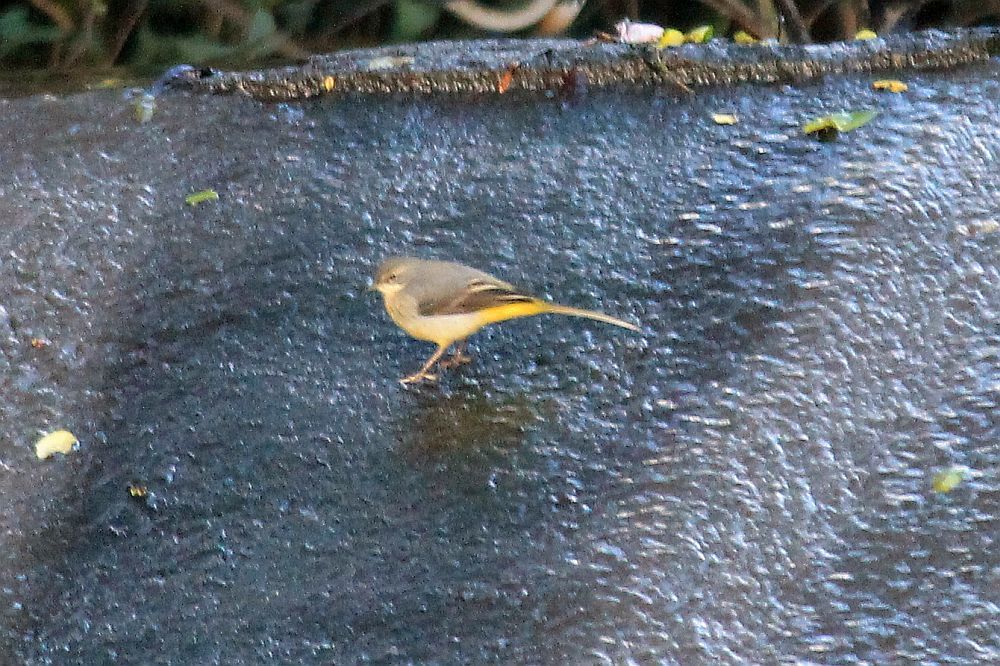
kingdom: Animalia
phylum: Chordata
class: Aves
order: Passeriformes
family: Motacillidae
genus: Motacilla
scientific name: Motacilla cinerea
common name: Grey wagtail
